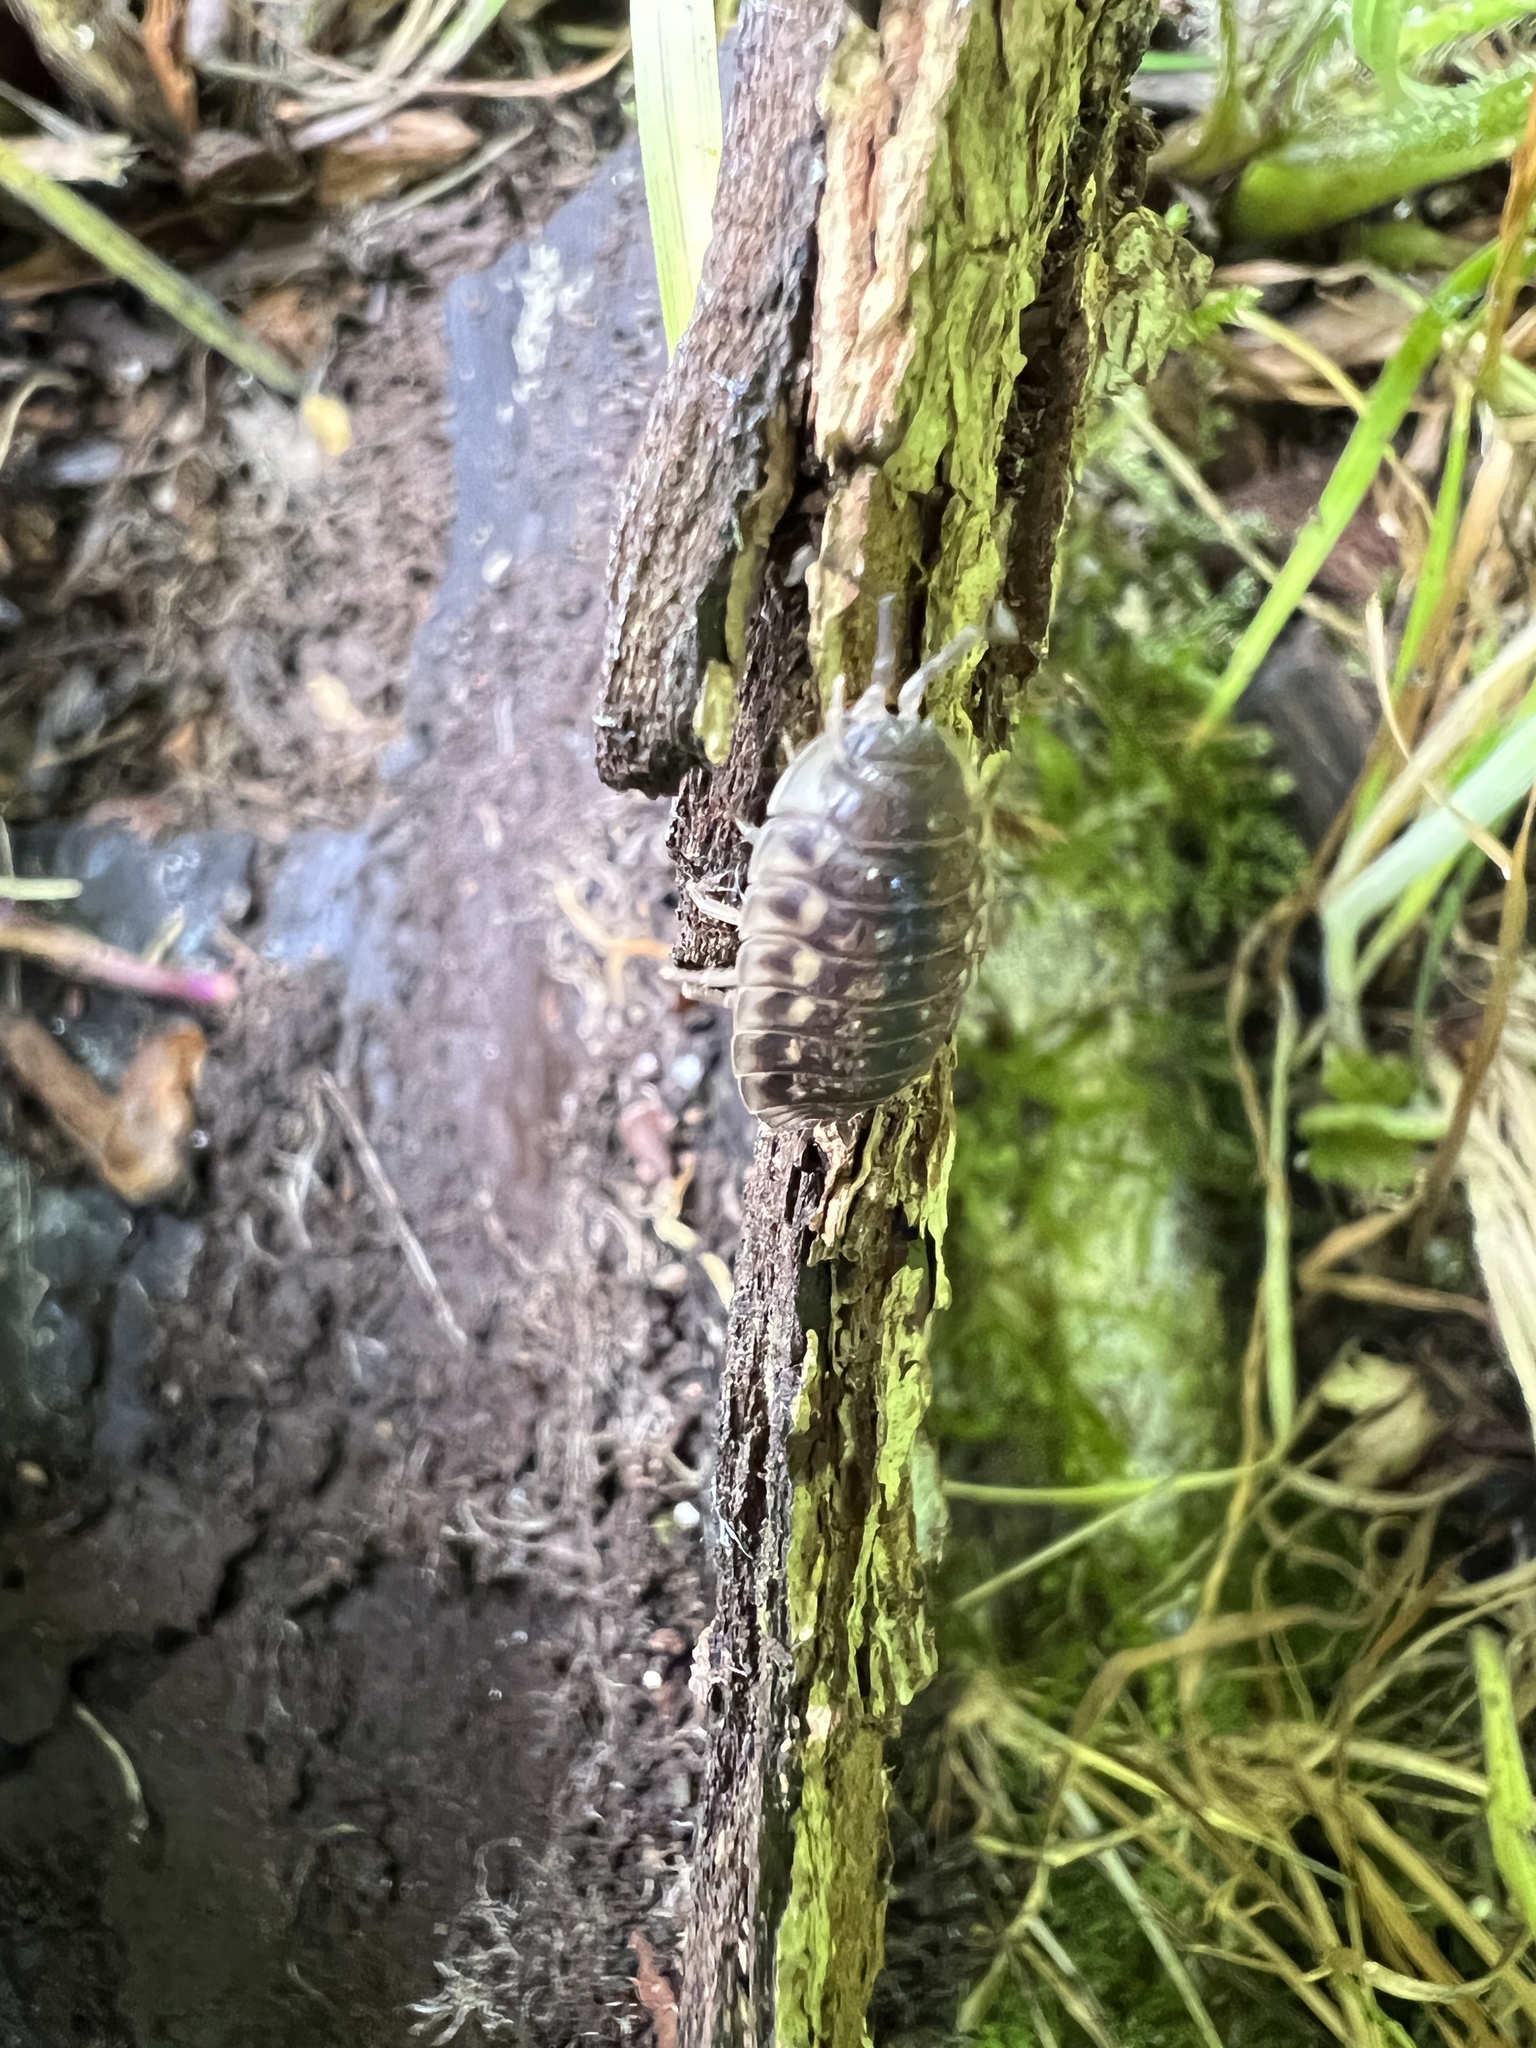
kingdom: Animalia
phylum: Arthropoda
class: Malacostraca
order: Isopoda
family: Oniscidae
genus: Oniscus
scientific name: Oniscus asellus
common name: Common shiny woodlouse
